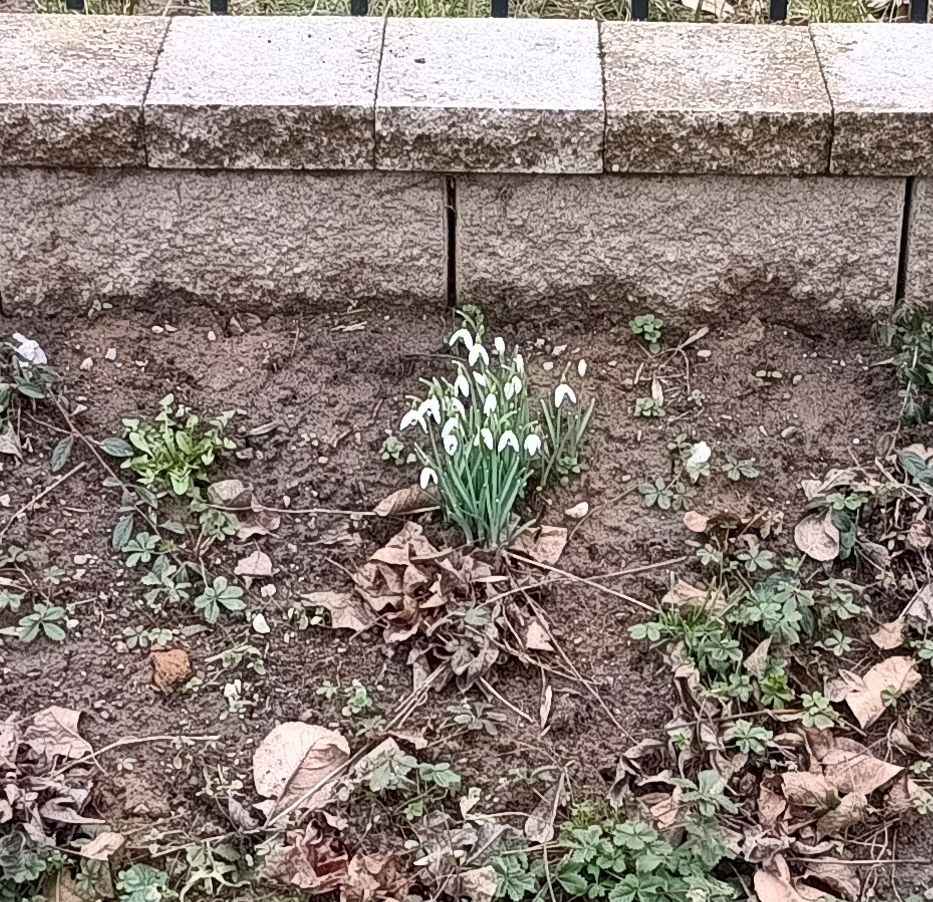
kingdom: Plantae
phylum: Tracheophyta
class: Liliopsida
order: Asparagales
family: Amaryllidaceae
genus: Galanthus
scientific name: Galanthus nivalis
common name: Snowdrop
